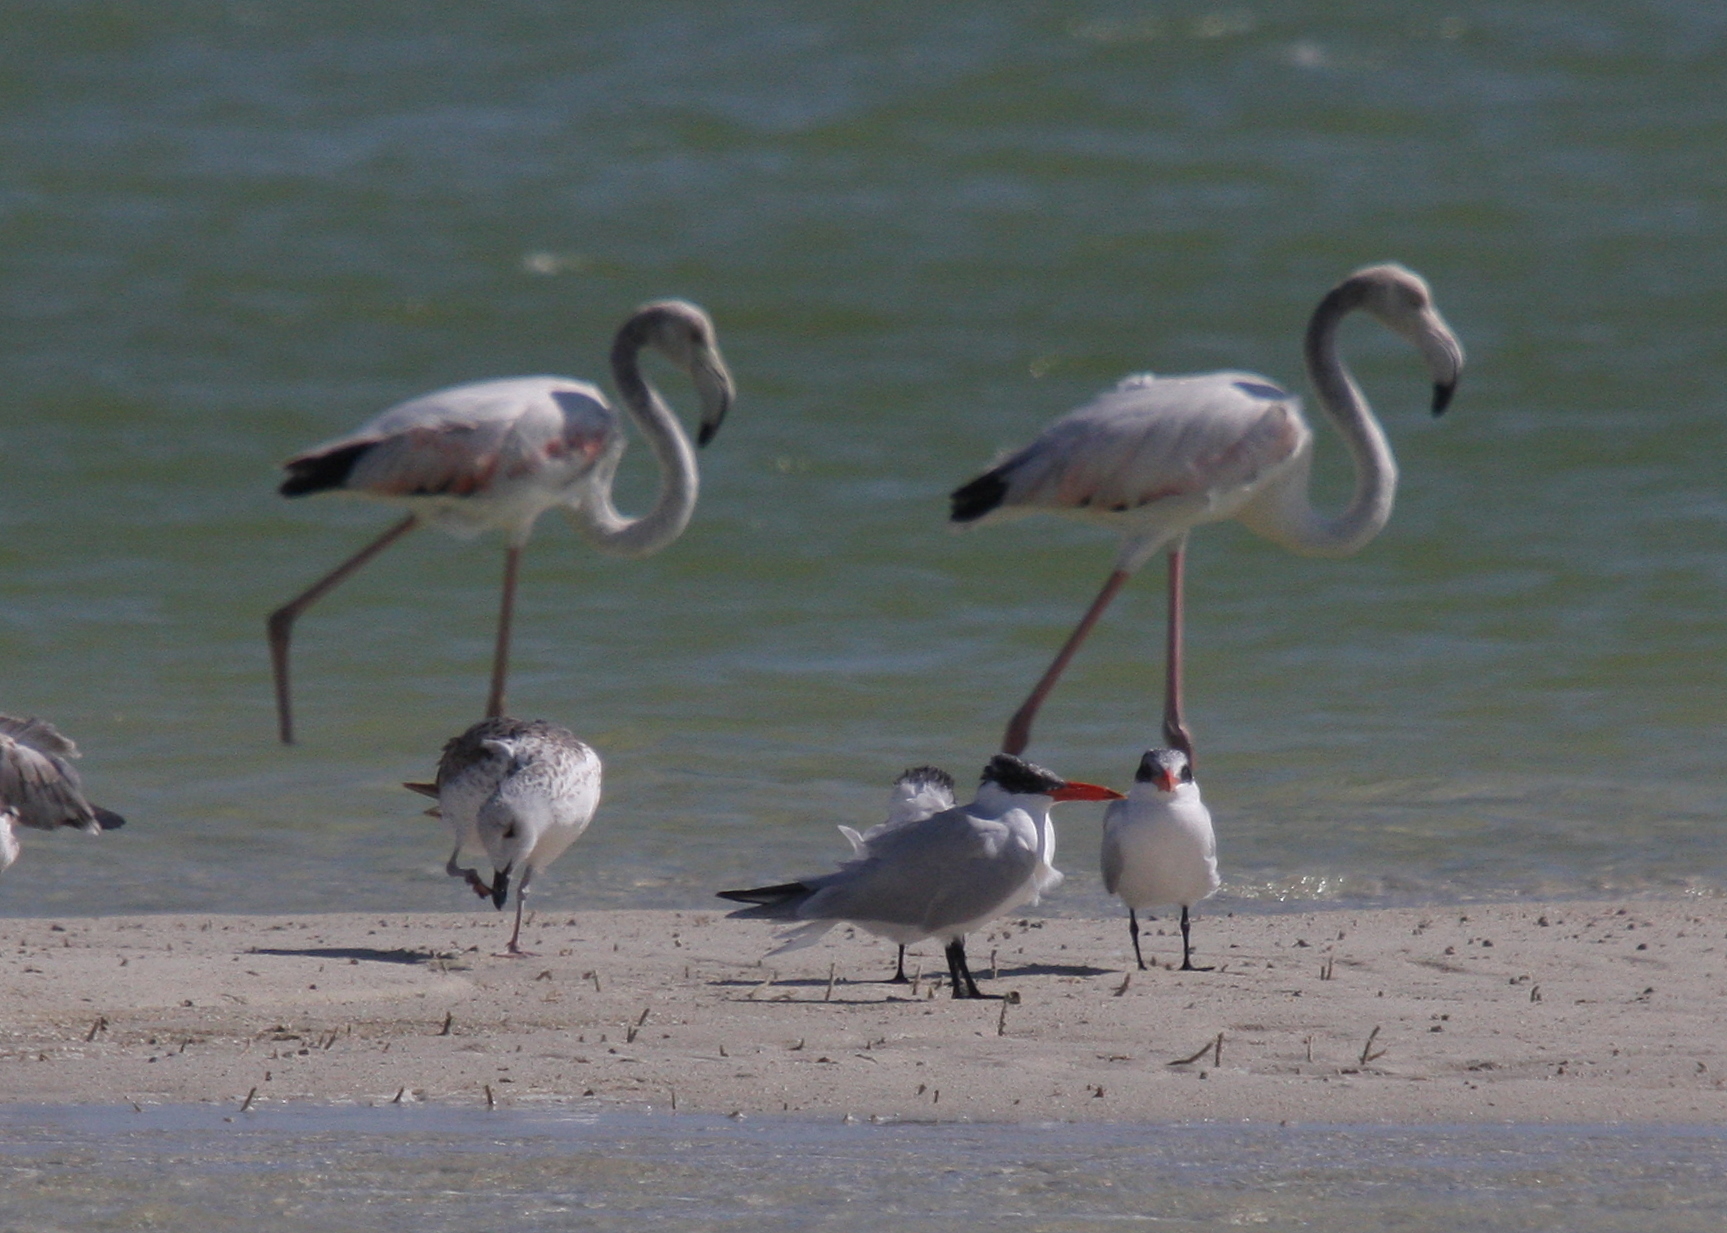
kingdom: Animalia
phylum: Chordata
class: Aves
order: Charadriiformes
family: Laridae
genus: Hydroprogne
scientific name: Hydroprogne caspia
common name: Caspian tern
